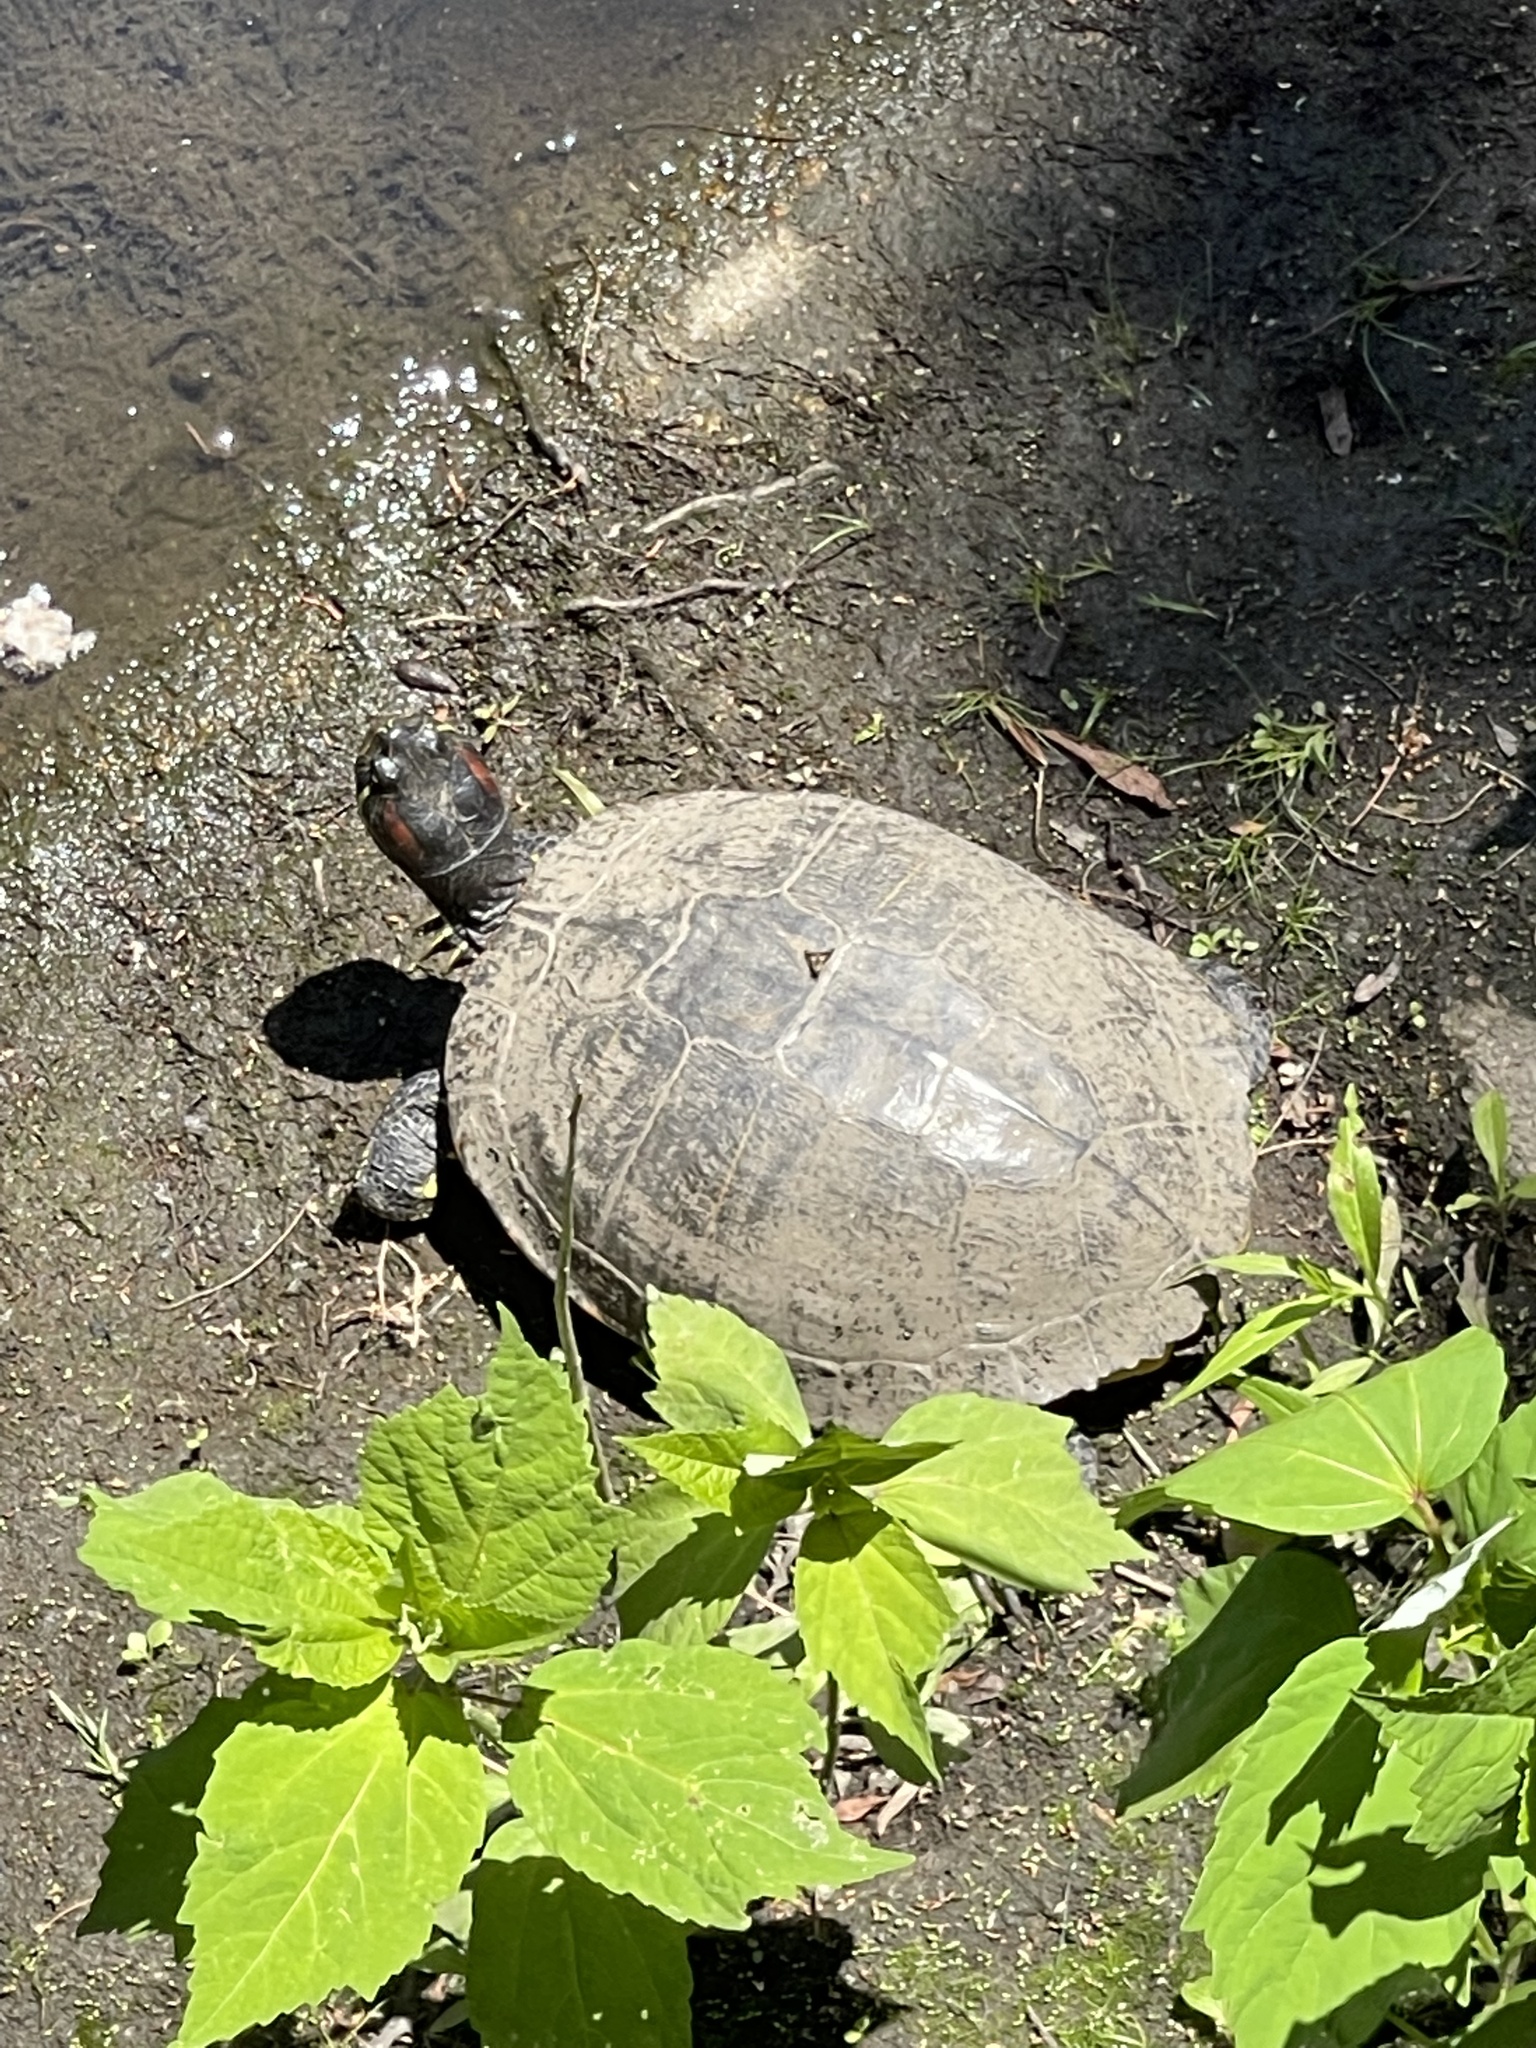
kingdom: Animalia
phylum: Chordata
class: Testudines
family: Emydidae
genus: Trachemys
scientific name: Trachemys scripta
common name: Slider
